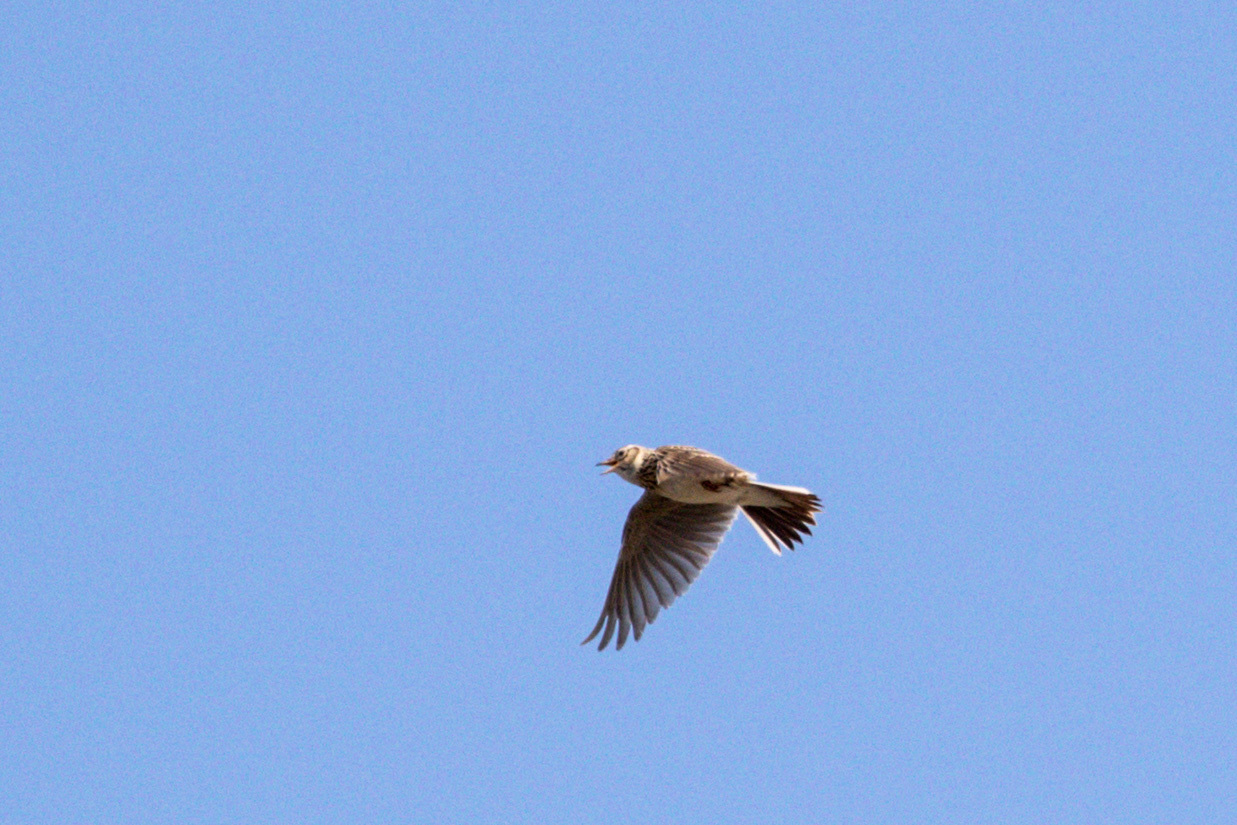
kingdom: Animalia
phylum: Chordata
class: Aves
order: Passeriformes
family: Alaudidae
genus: Alauda
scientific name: Alauda arvensis
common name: Eurasian skylark
